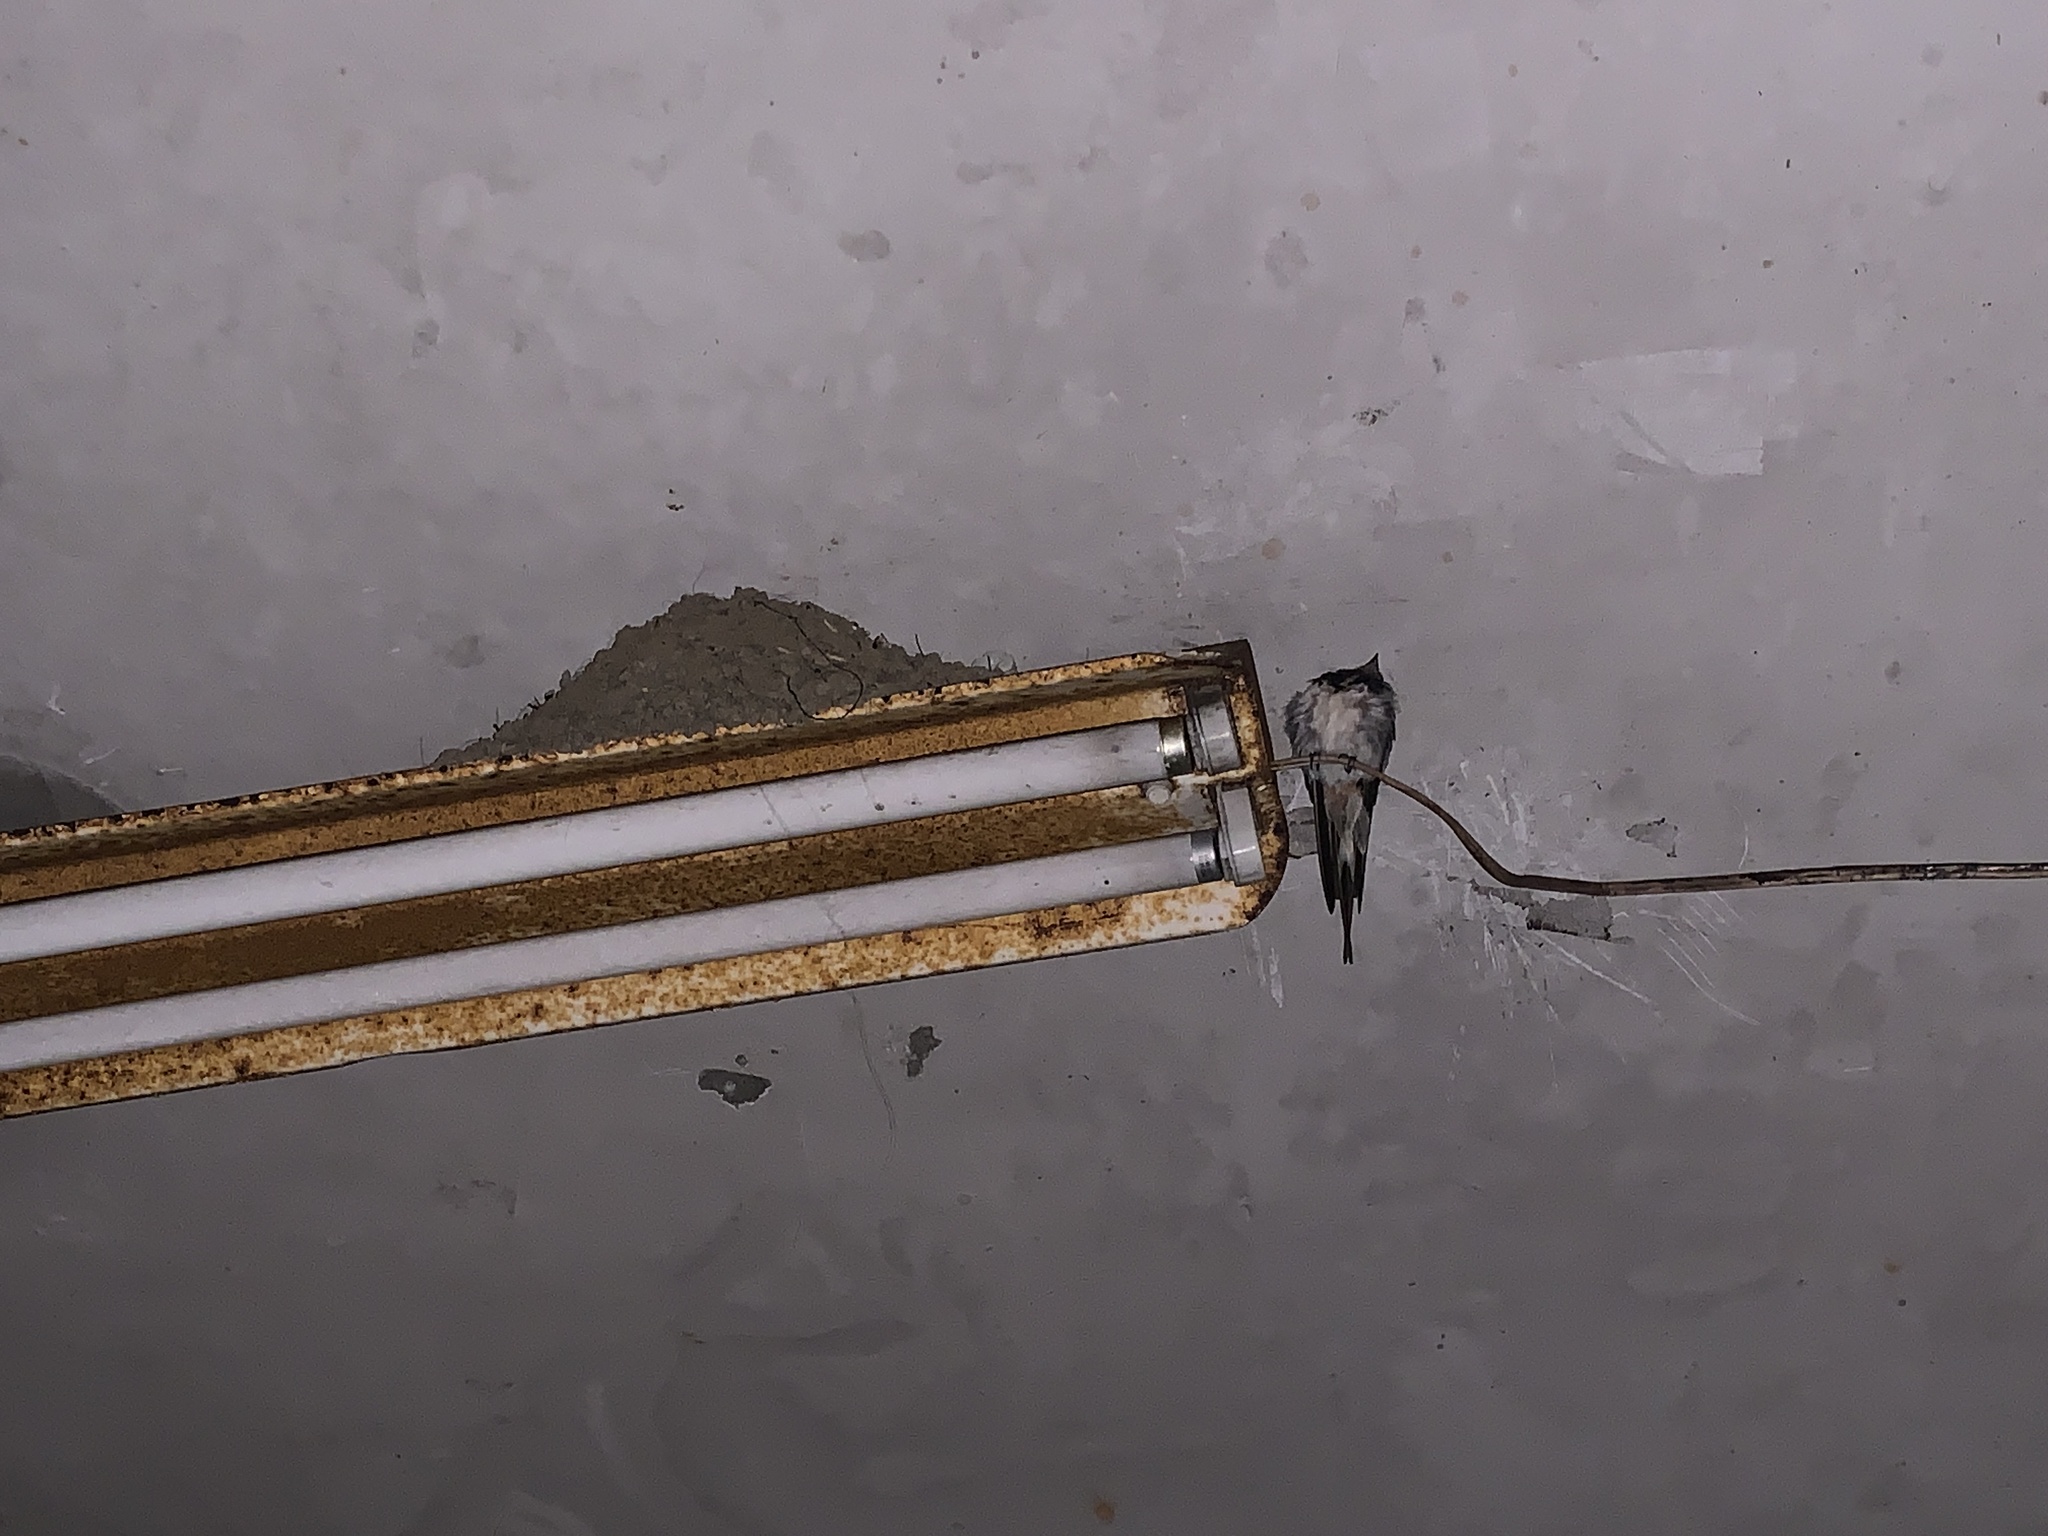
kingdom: Animalia
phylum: Chordata
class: Aves
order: Passeriformes
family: Hirundinidae
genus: Hirundo
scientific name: Hirundo rustica
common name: Barn swallow
